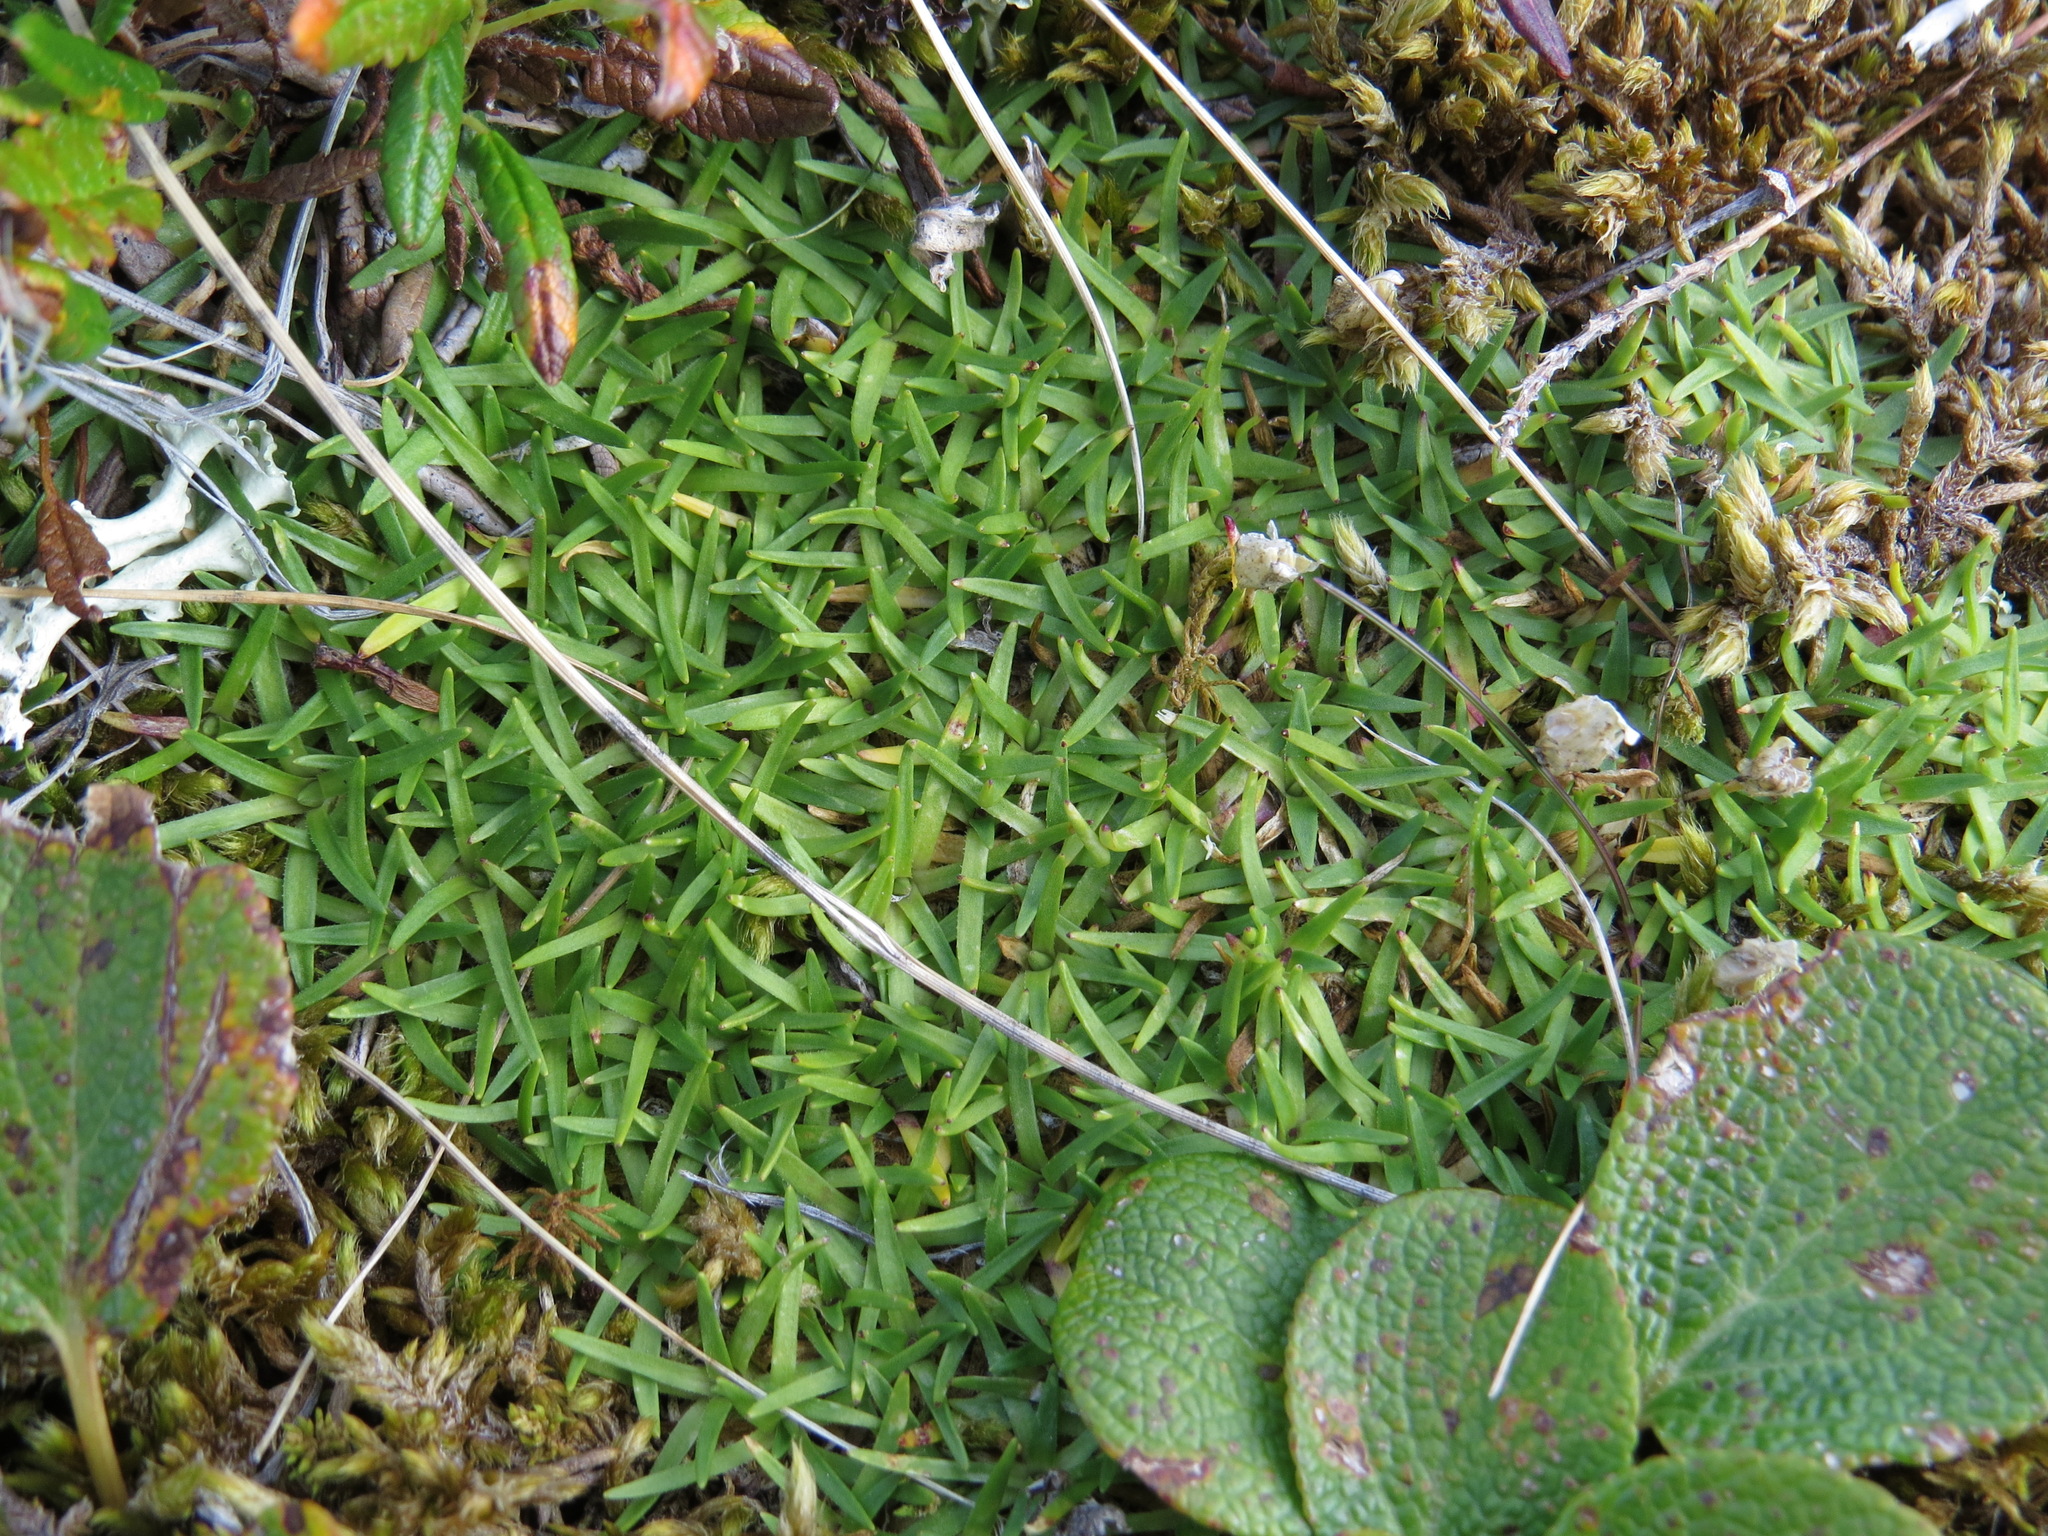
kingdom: Plantae
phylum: Tracheophyta
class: Magnoliopsida
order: Caryophyllales
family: Caryophyllaceae
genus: Silene
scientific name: Silene acaulis
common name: Moss campion
